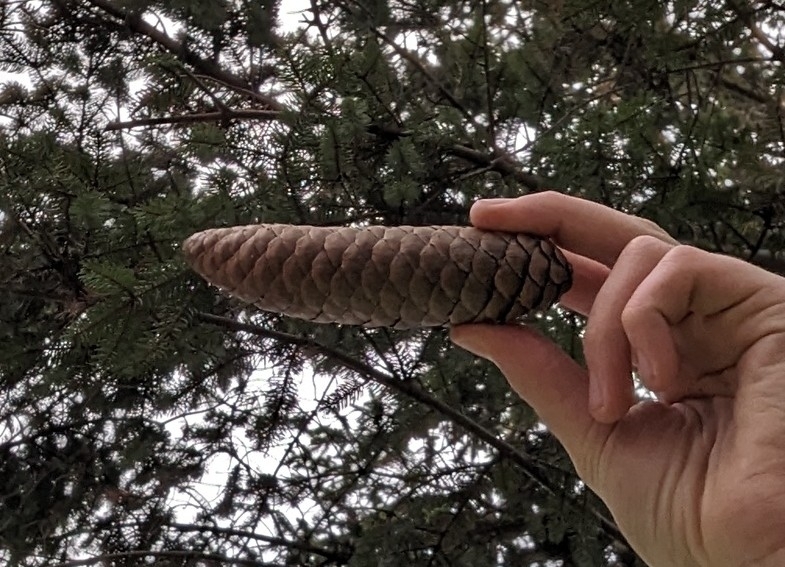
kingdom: Plantae
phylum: Tracheophyta
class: Pinopsida
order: Pinales
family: Pinaceae
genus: Picea
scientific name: Picea abies
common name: Norway spruce
